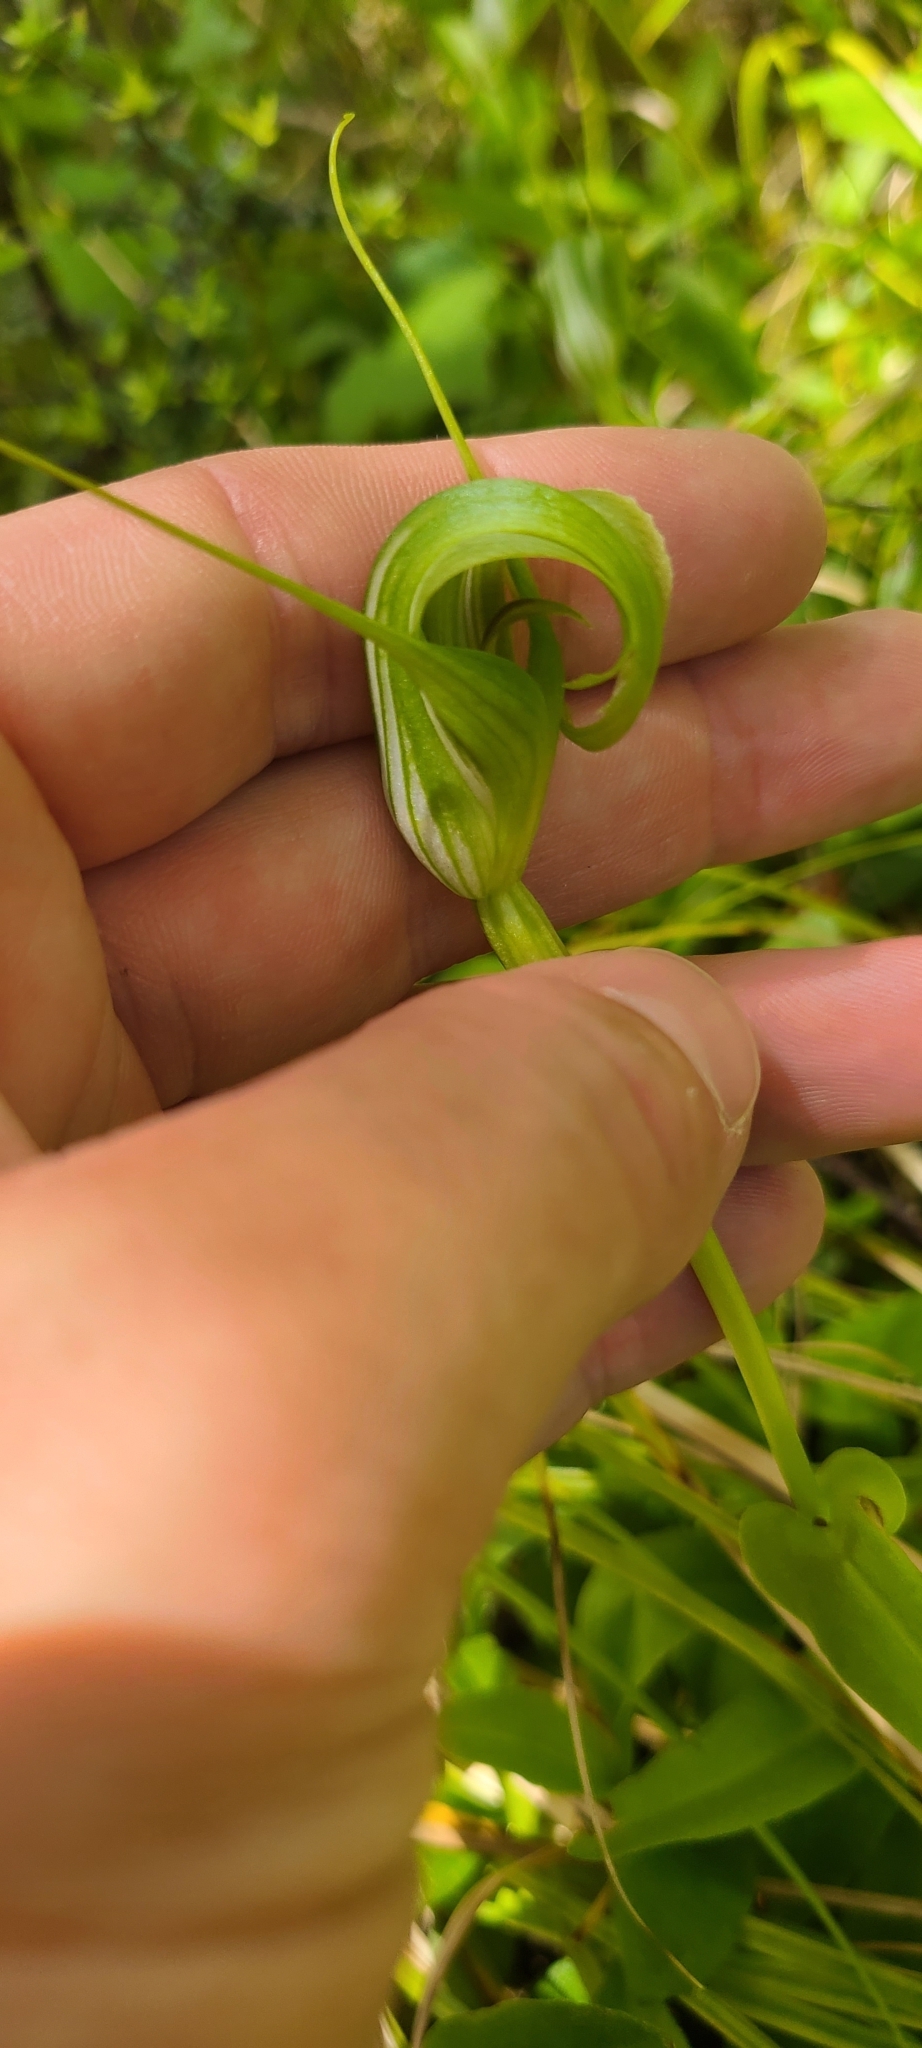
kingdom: Plantae
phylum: Tracheophyta
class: Liliopsida
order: Asparagales
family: Orchidaceae
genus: Pterostylis
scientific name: Pterostylis oliveri
